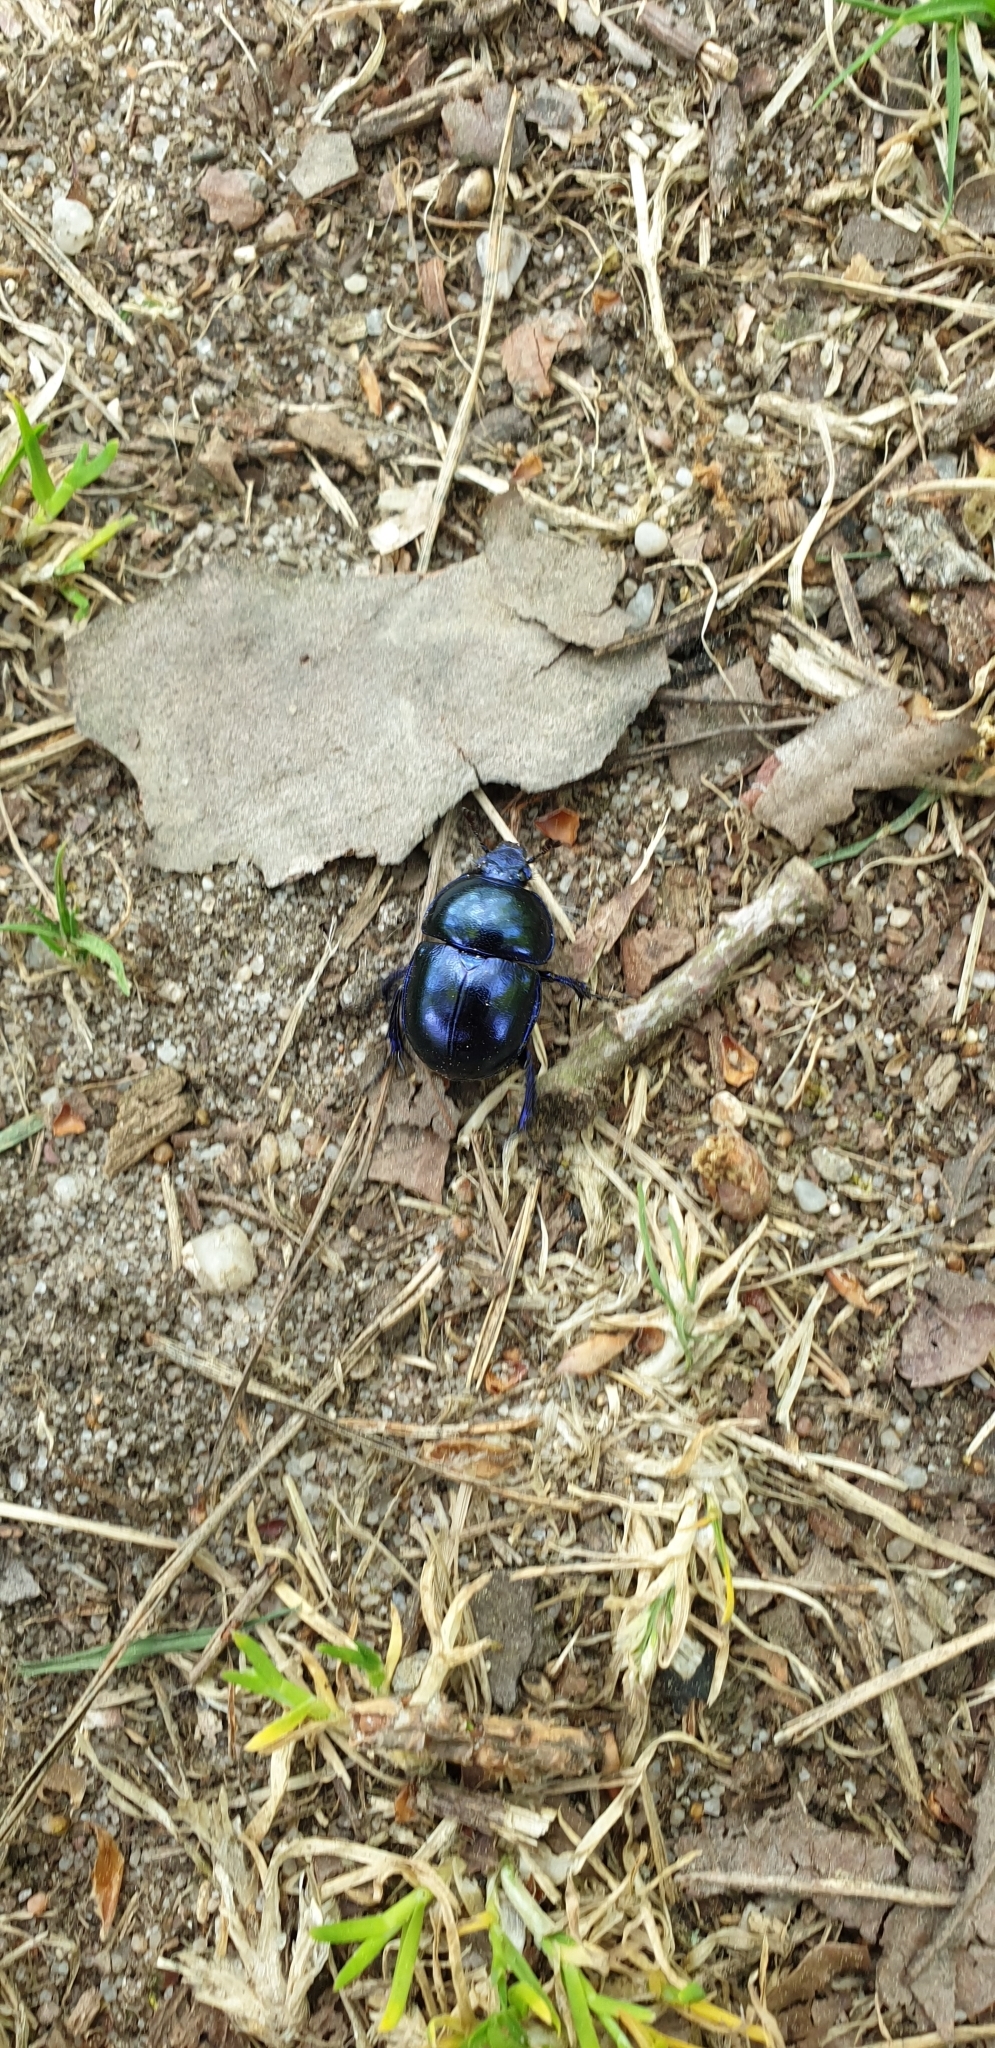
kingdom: Animalia
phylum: Arthropoda
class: Insecta
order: Coleoptera
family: Geotrupidae
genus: Trypocopris
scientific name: Trypocopris vernalis
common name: Spring dumbledor
